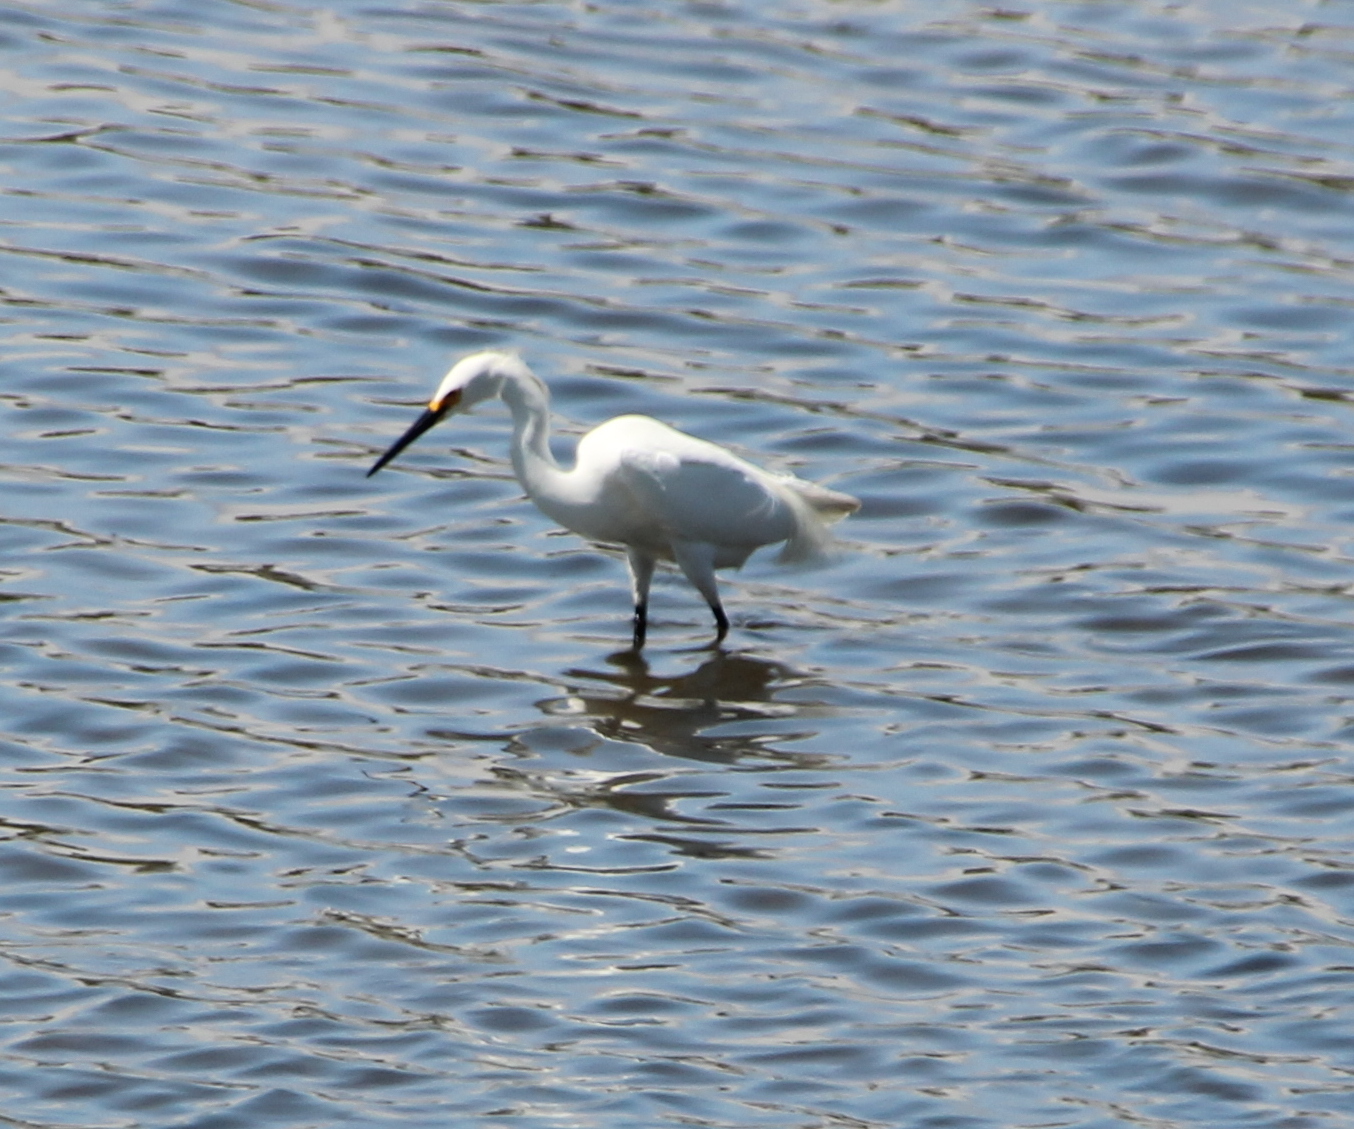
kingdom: Animalia
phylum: Chordata
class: Aves
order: Pelecaniformes
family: Ardeidae
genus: Egretta
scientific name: Egretta thula
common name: Snowy egret
